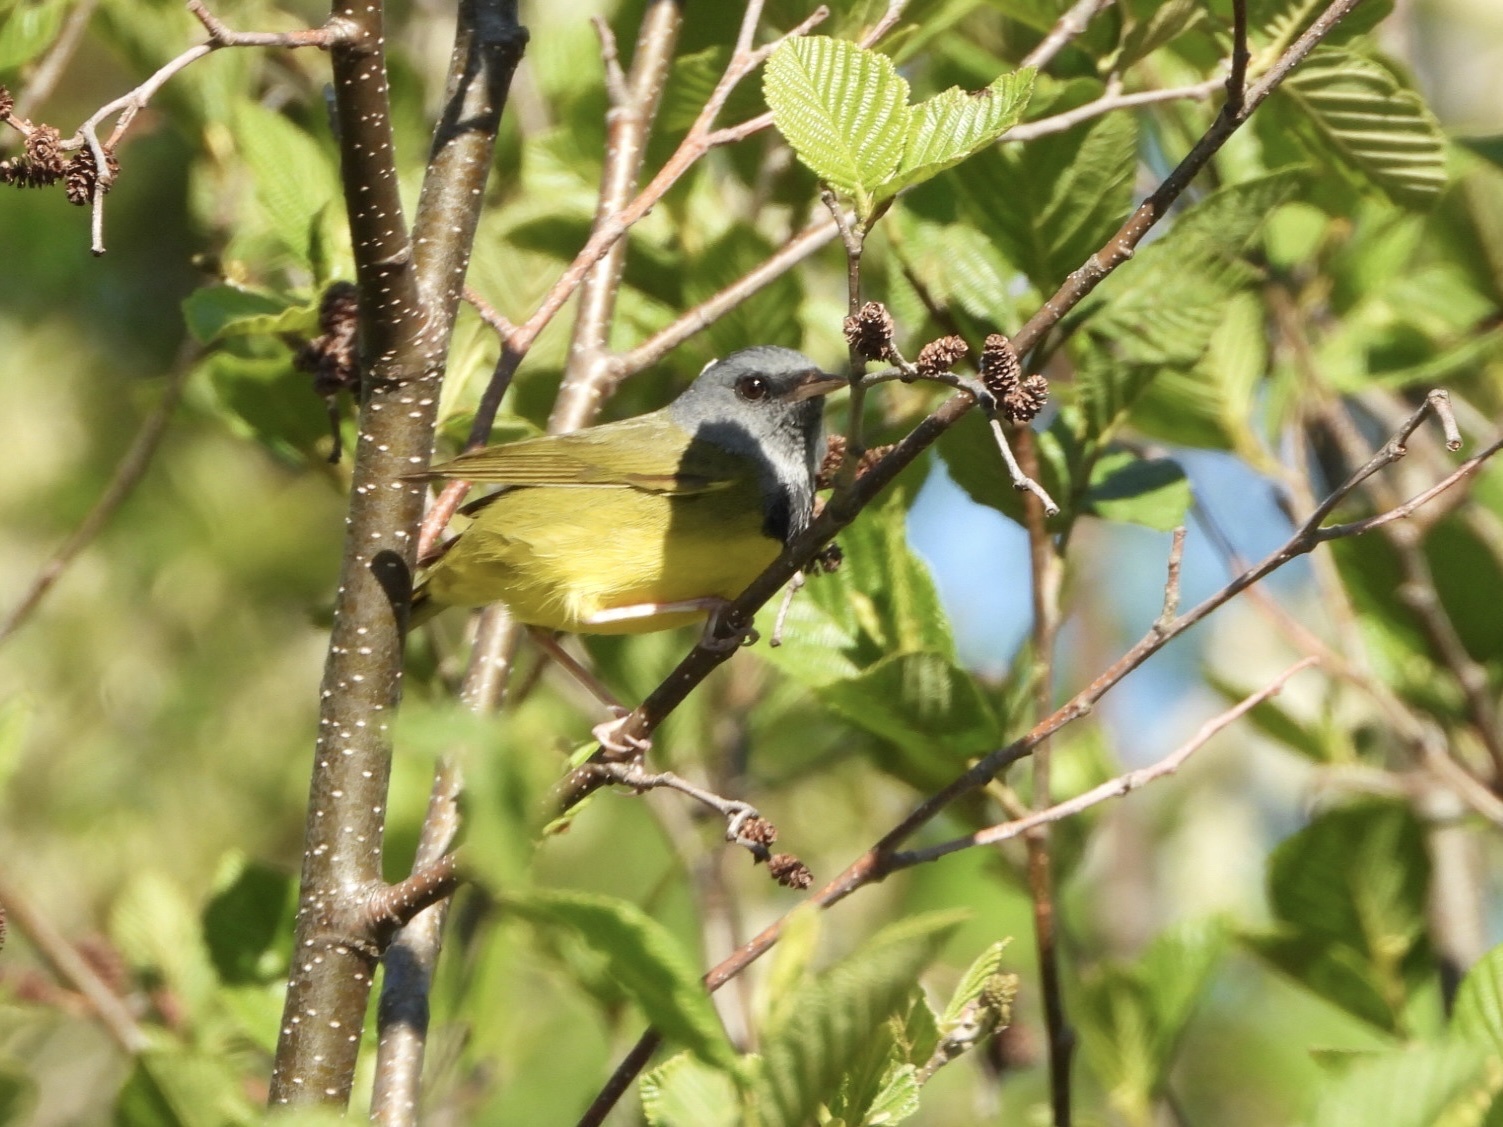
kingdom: Animalia
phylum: Chordata
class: Aves
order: Passeriformes
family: Parulidae
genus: Geothlypis
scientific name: Geothlypis philadelphia
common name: Mourning warbler
